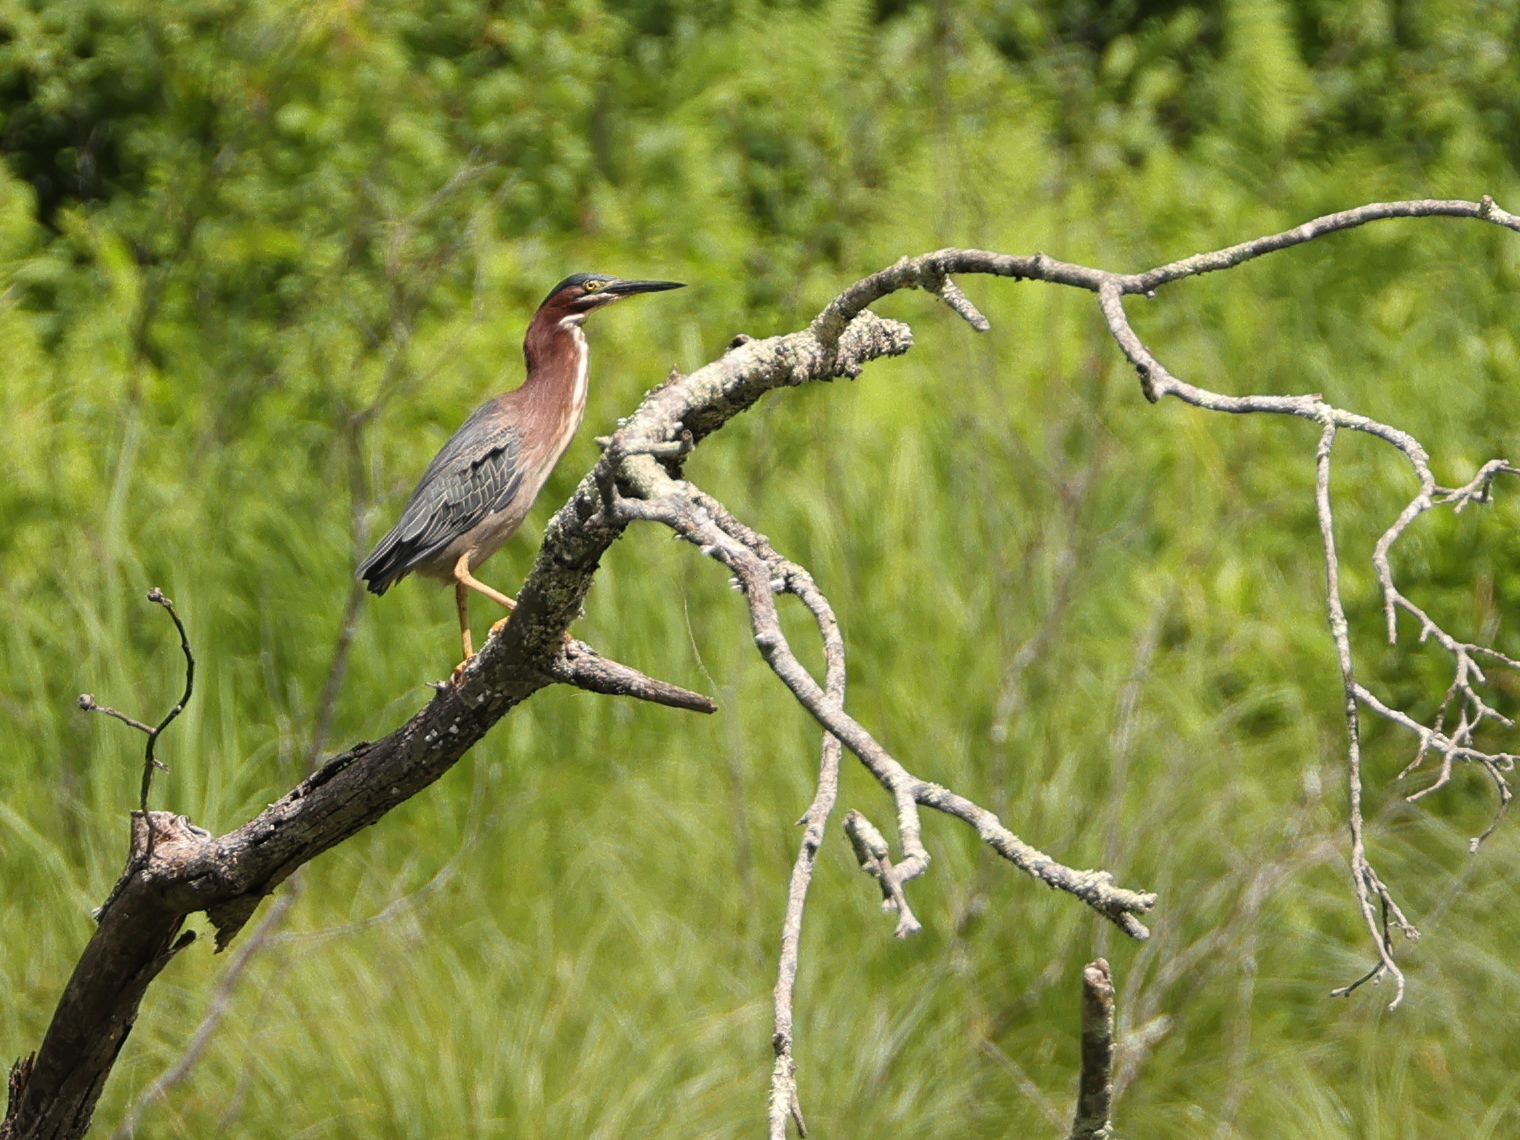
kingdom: Animalia
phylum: Chordata
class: Aves
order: Pelecaniformes
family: Ardeidae
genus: Butorides
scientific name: Butorides virescens
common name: Green heron
